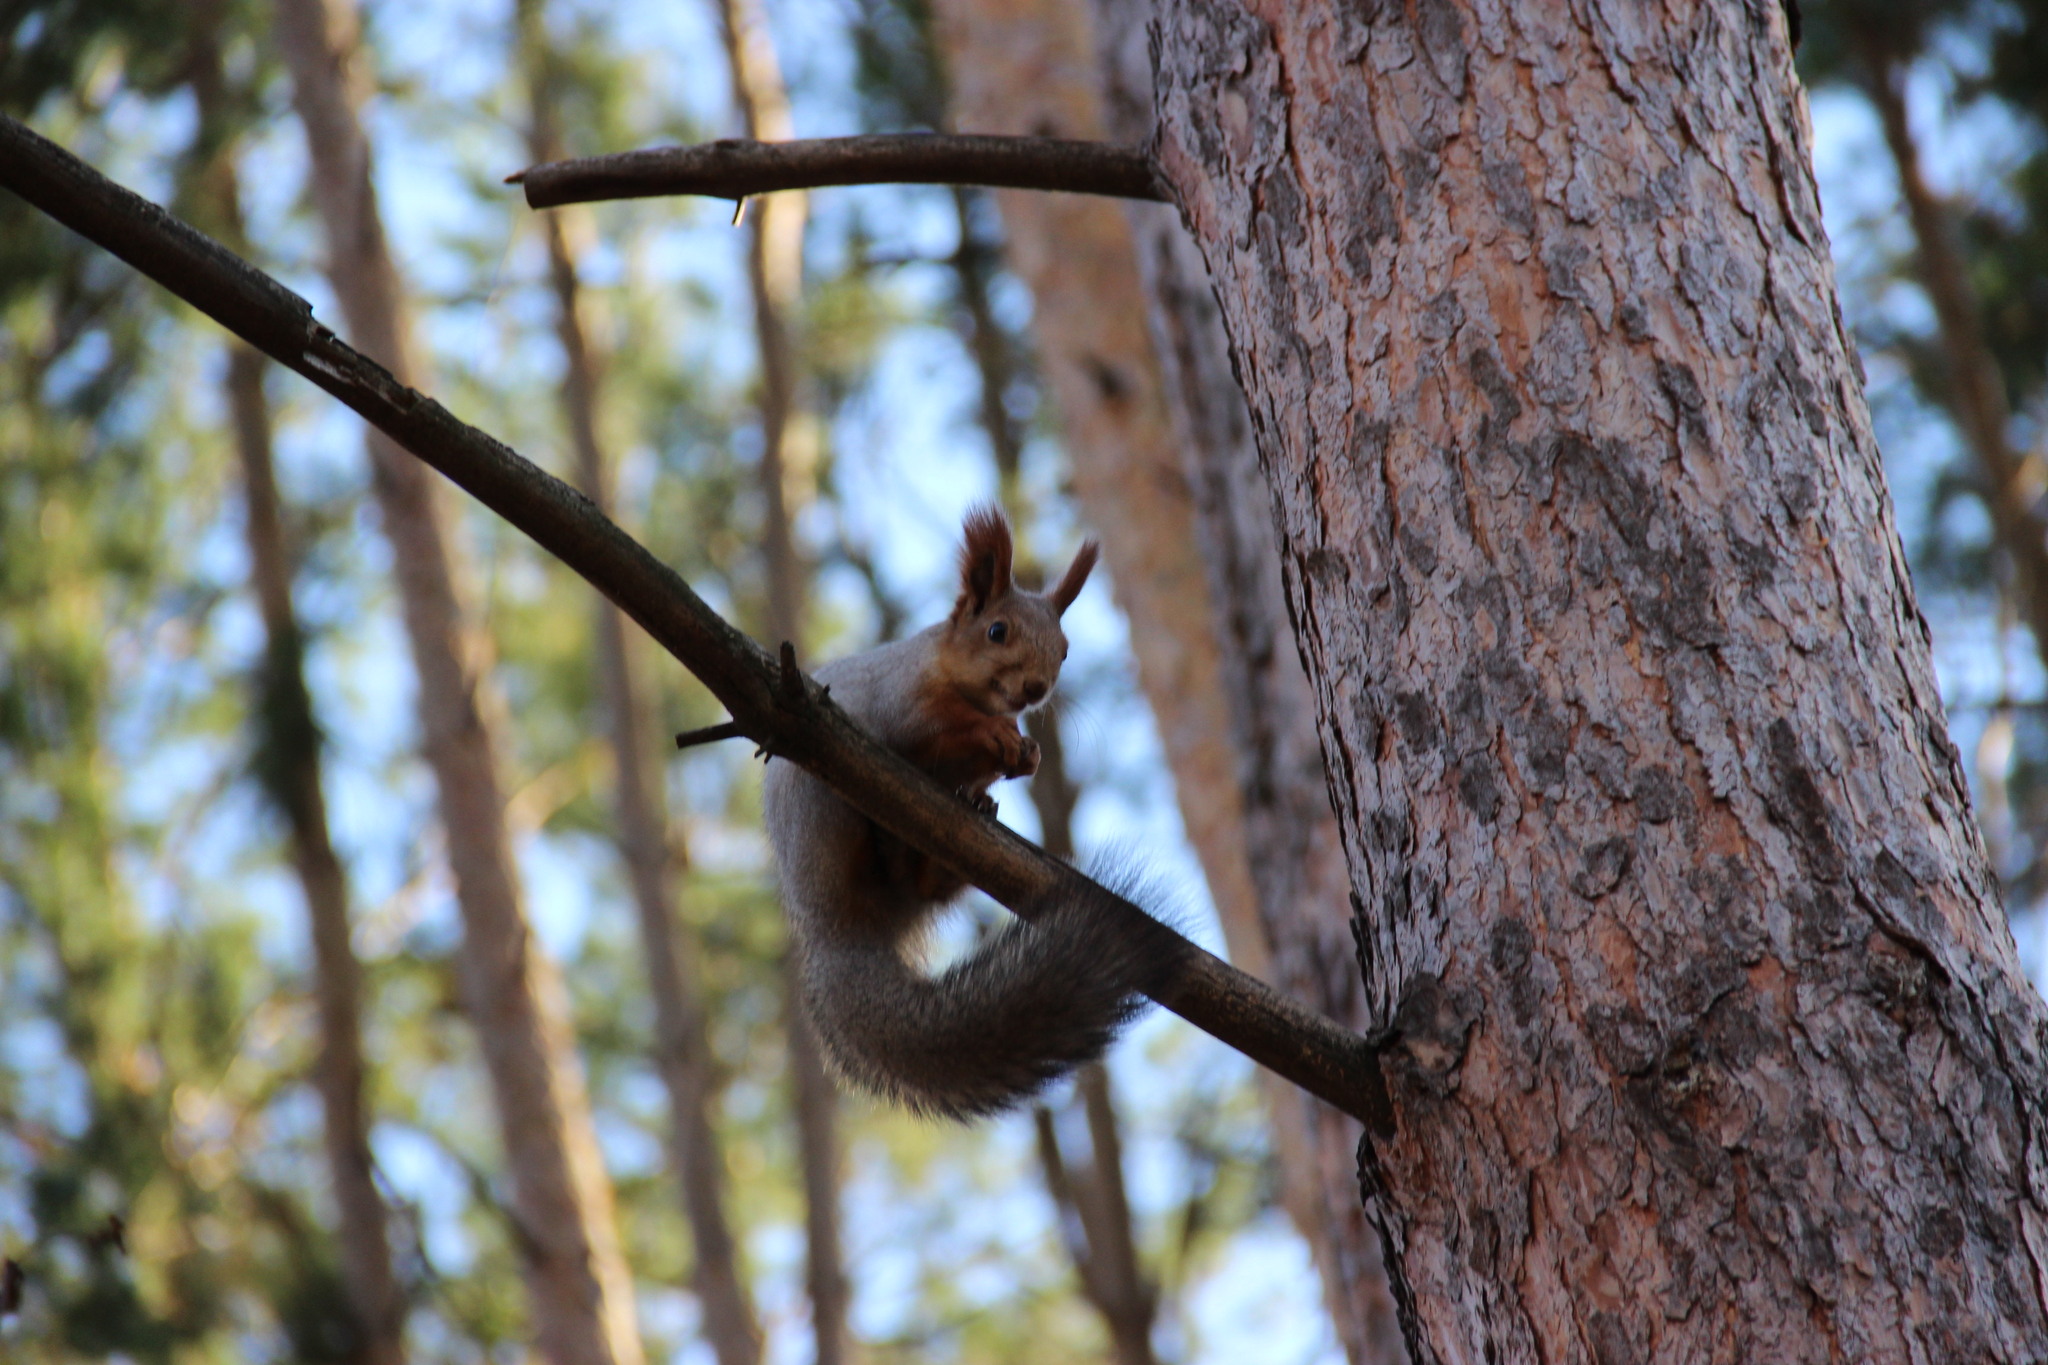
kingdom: Animalia
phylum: Chordata
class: Mammalia
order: Rodentia
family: Sciuridae
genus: Sciurus
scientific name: Sciurus vulgaris
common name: Eurasian red squirrel
